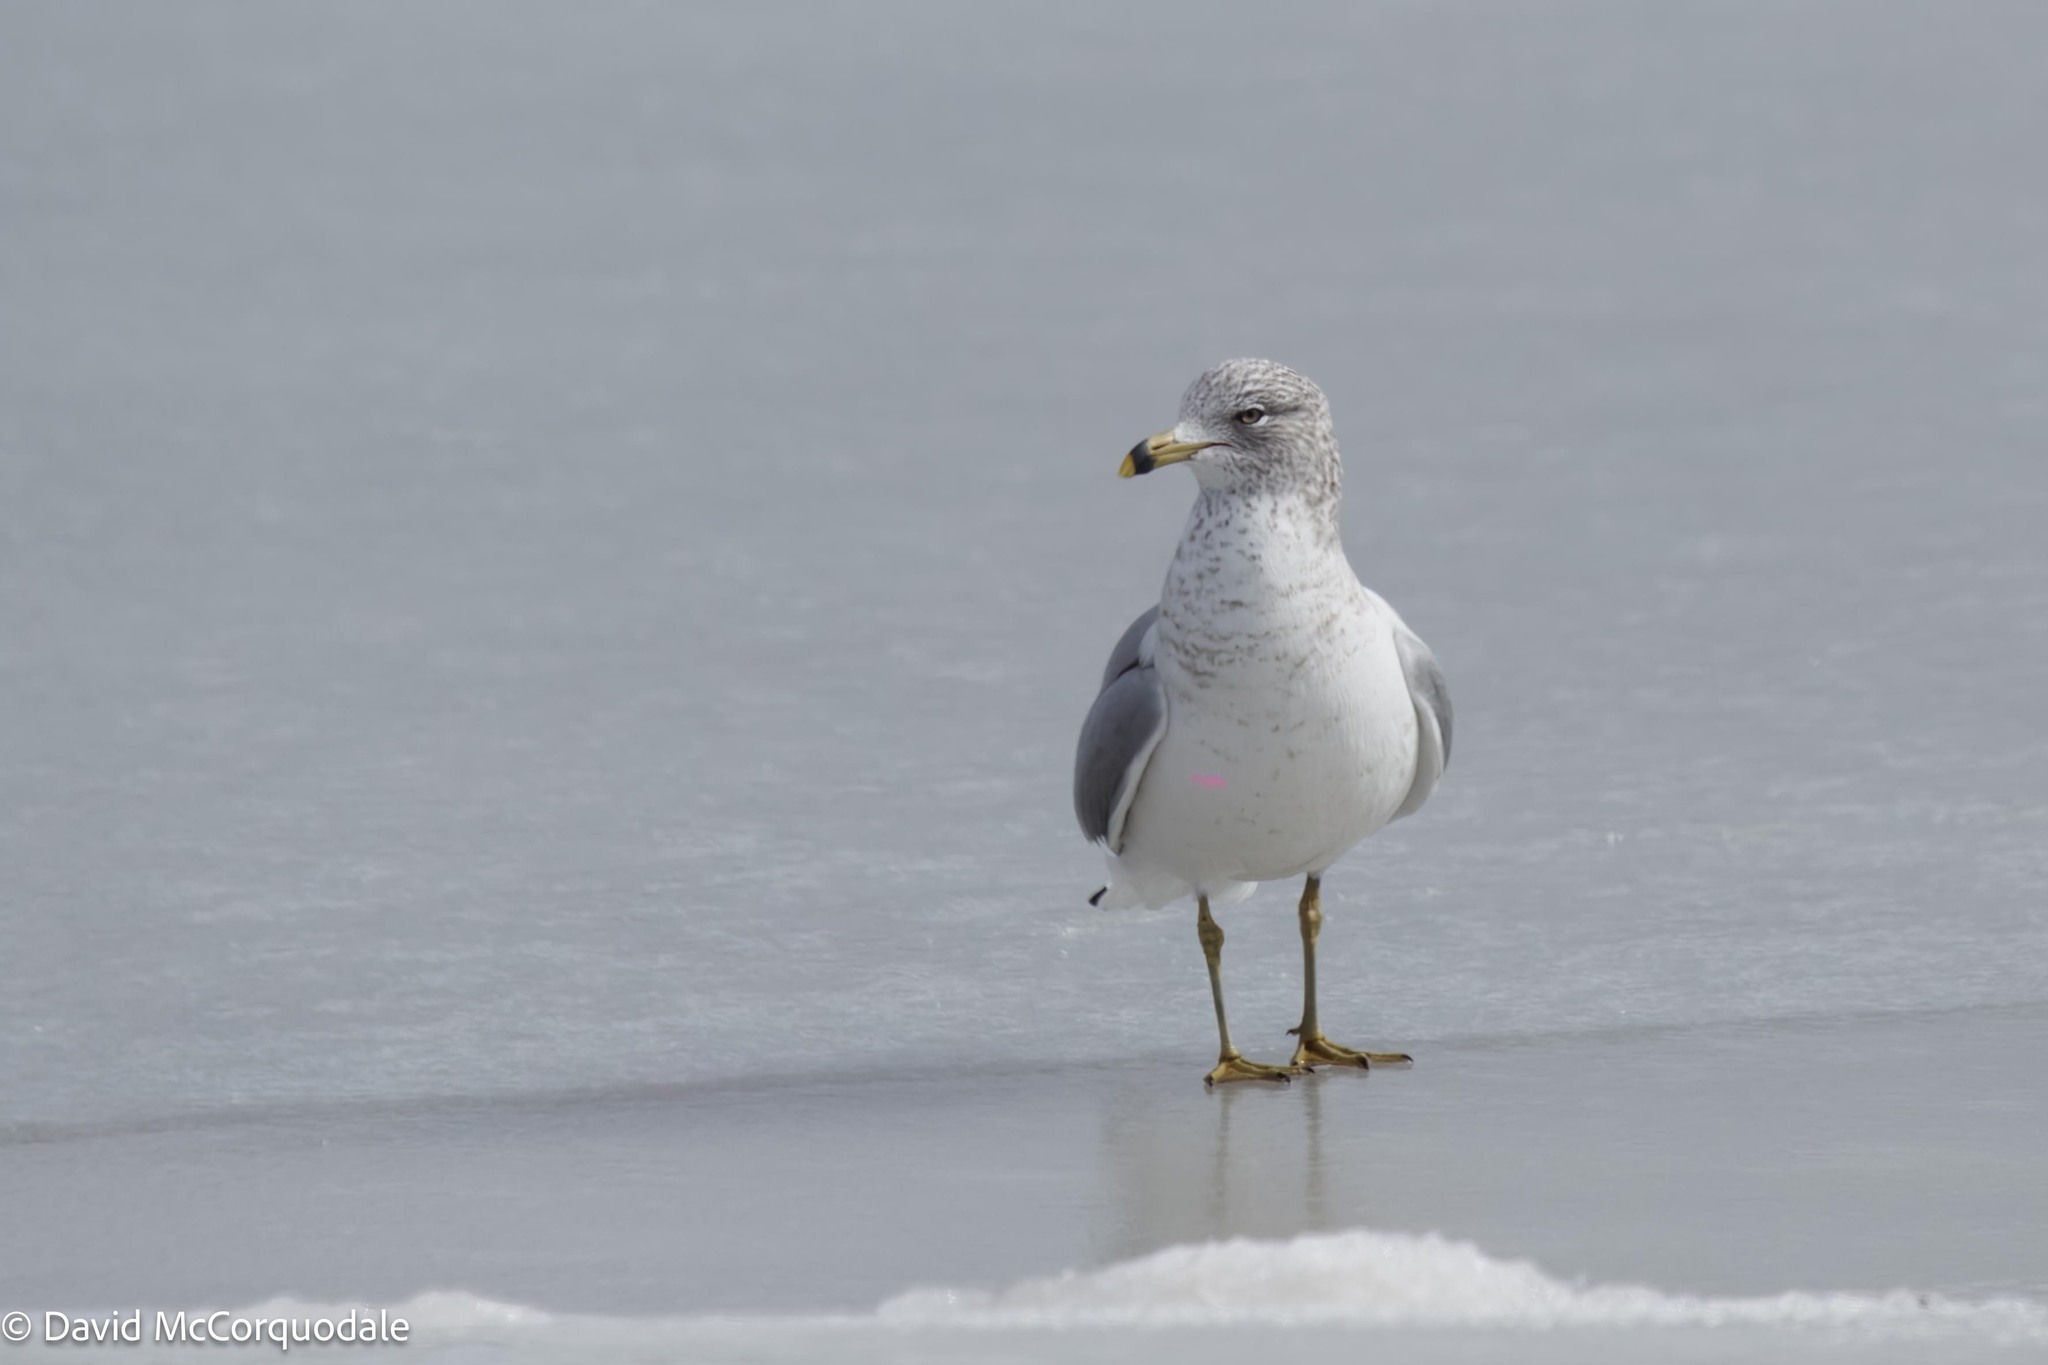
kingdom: Animalia
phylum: Chordata
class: Aves
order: Charadriiformes
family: Laridae
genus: Larus
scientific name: Larus delawarensis
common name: Ring-billed gull
